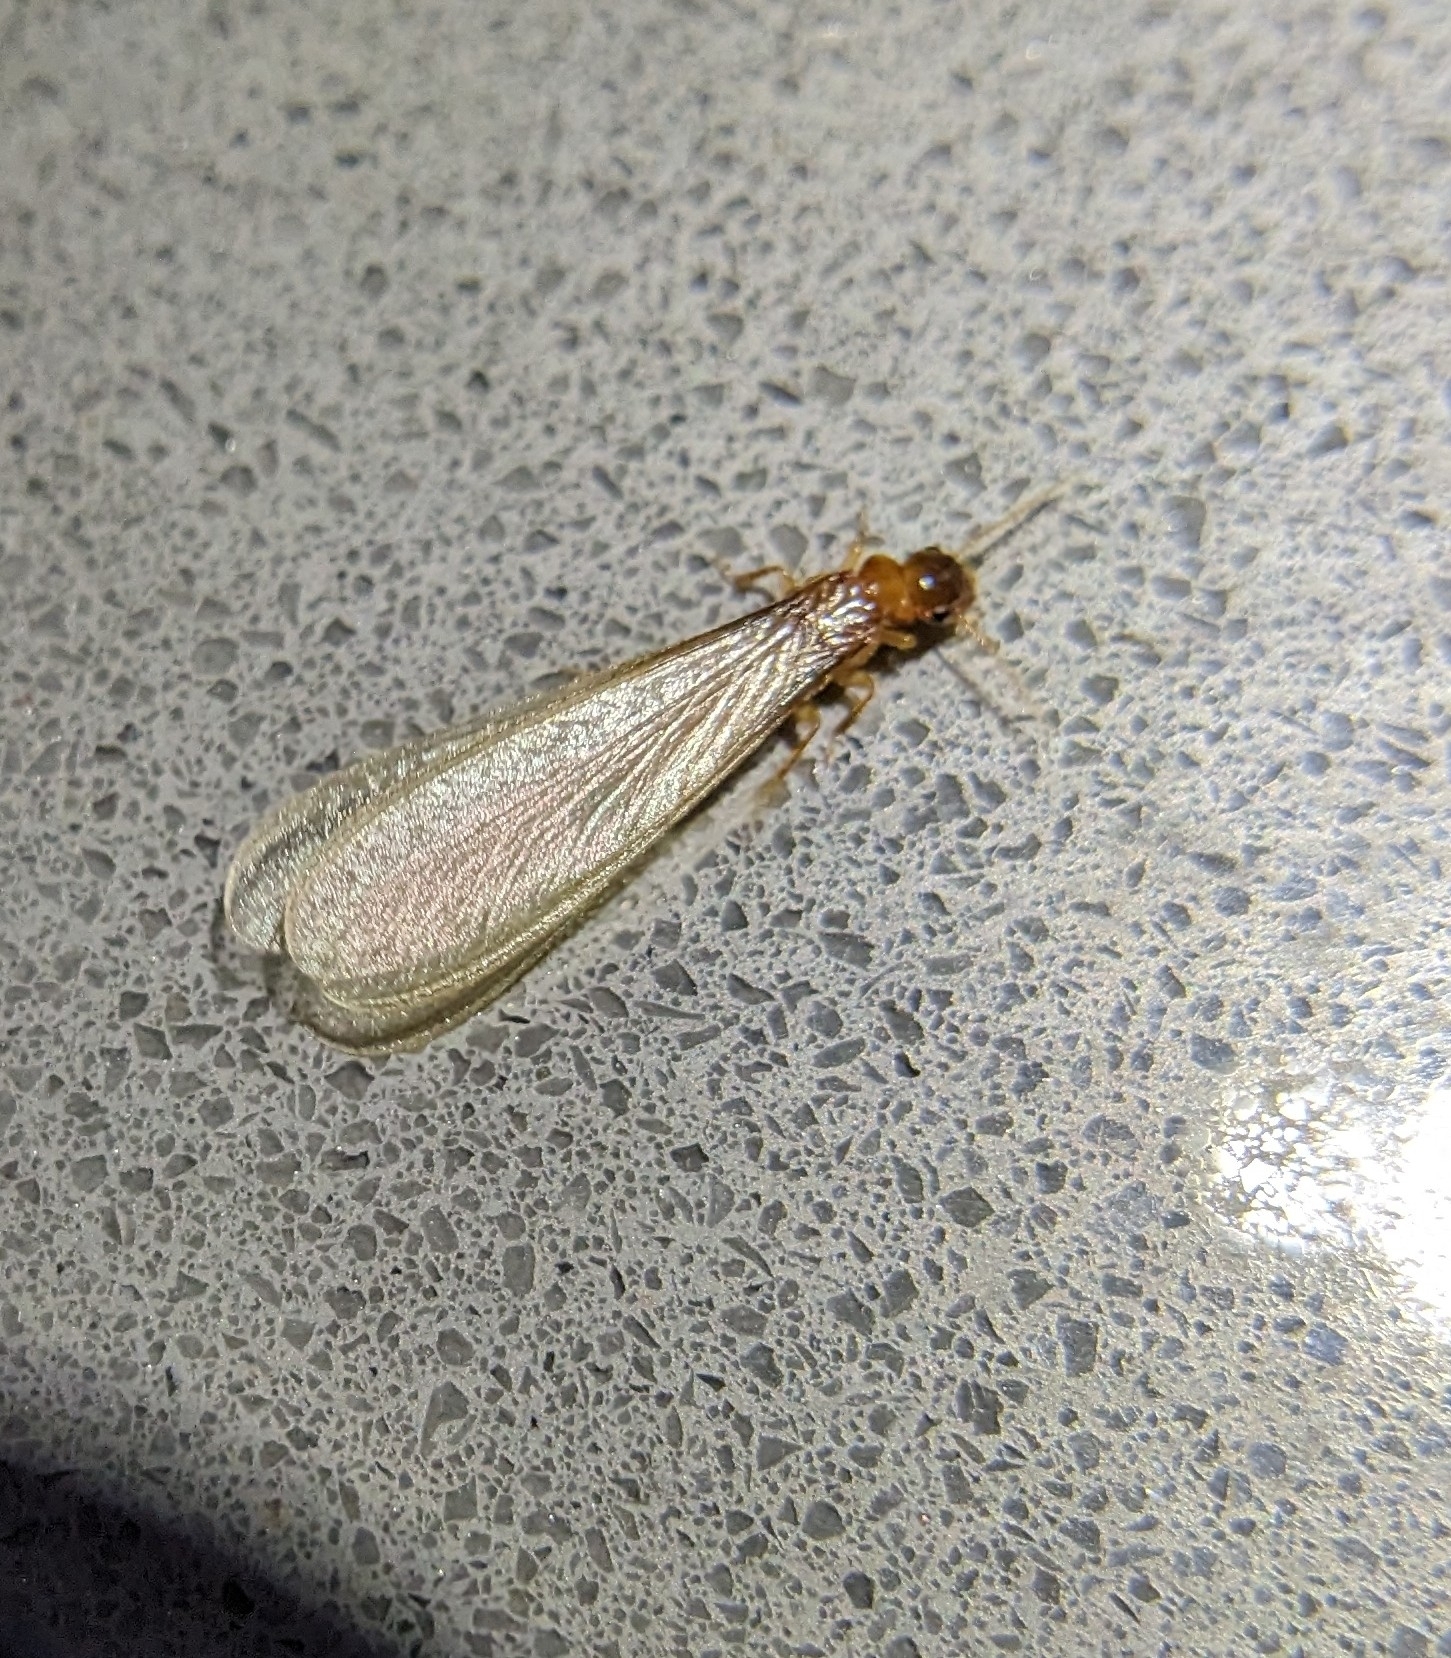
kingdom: Animalia
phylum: Arthropoda
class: Insecta
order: Blattodea
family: Rhinotermitidae
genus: Coptotermes
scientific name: Coptotermes formosanus
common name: Formosan termite
